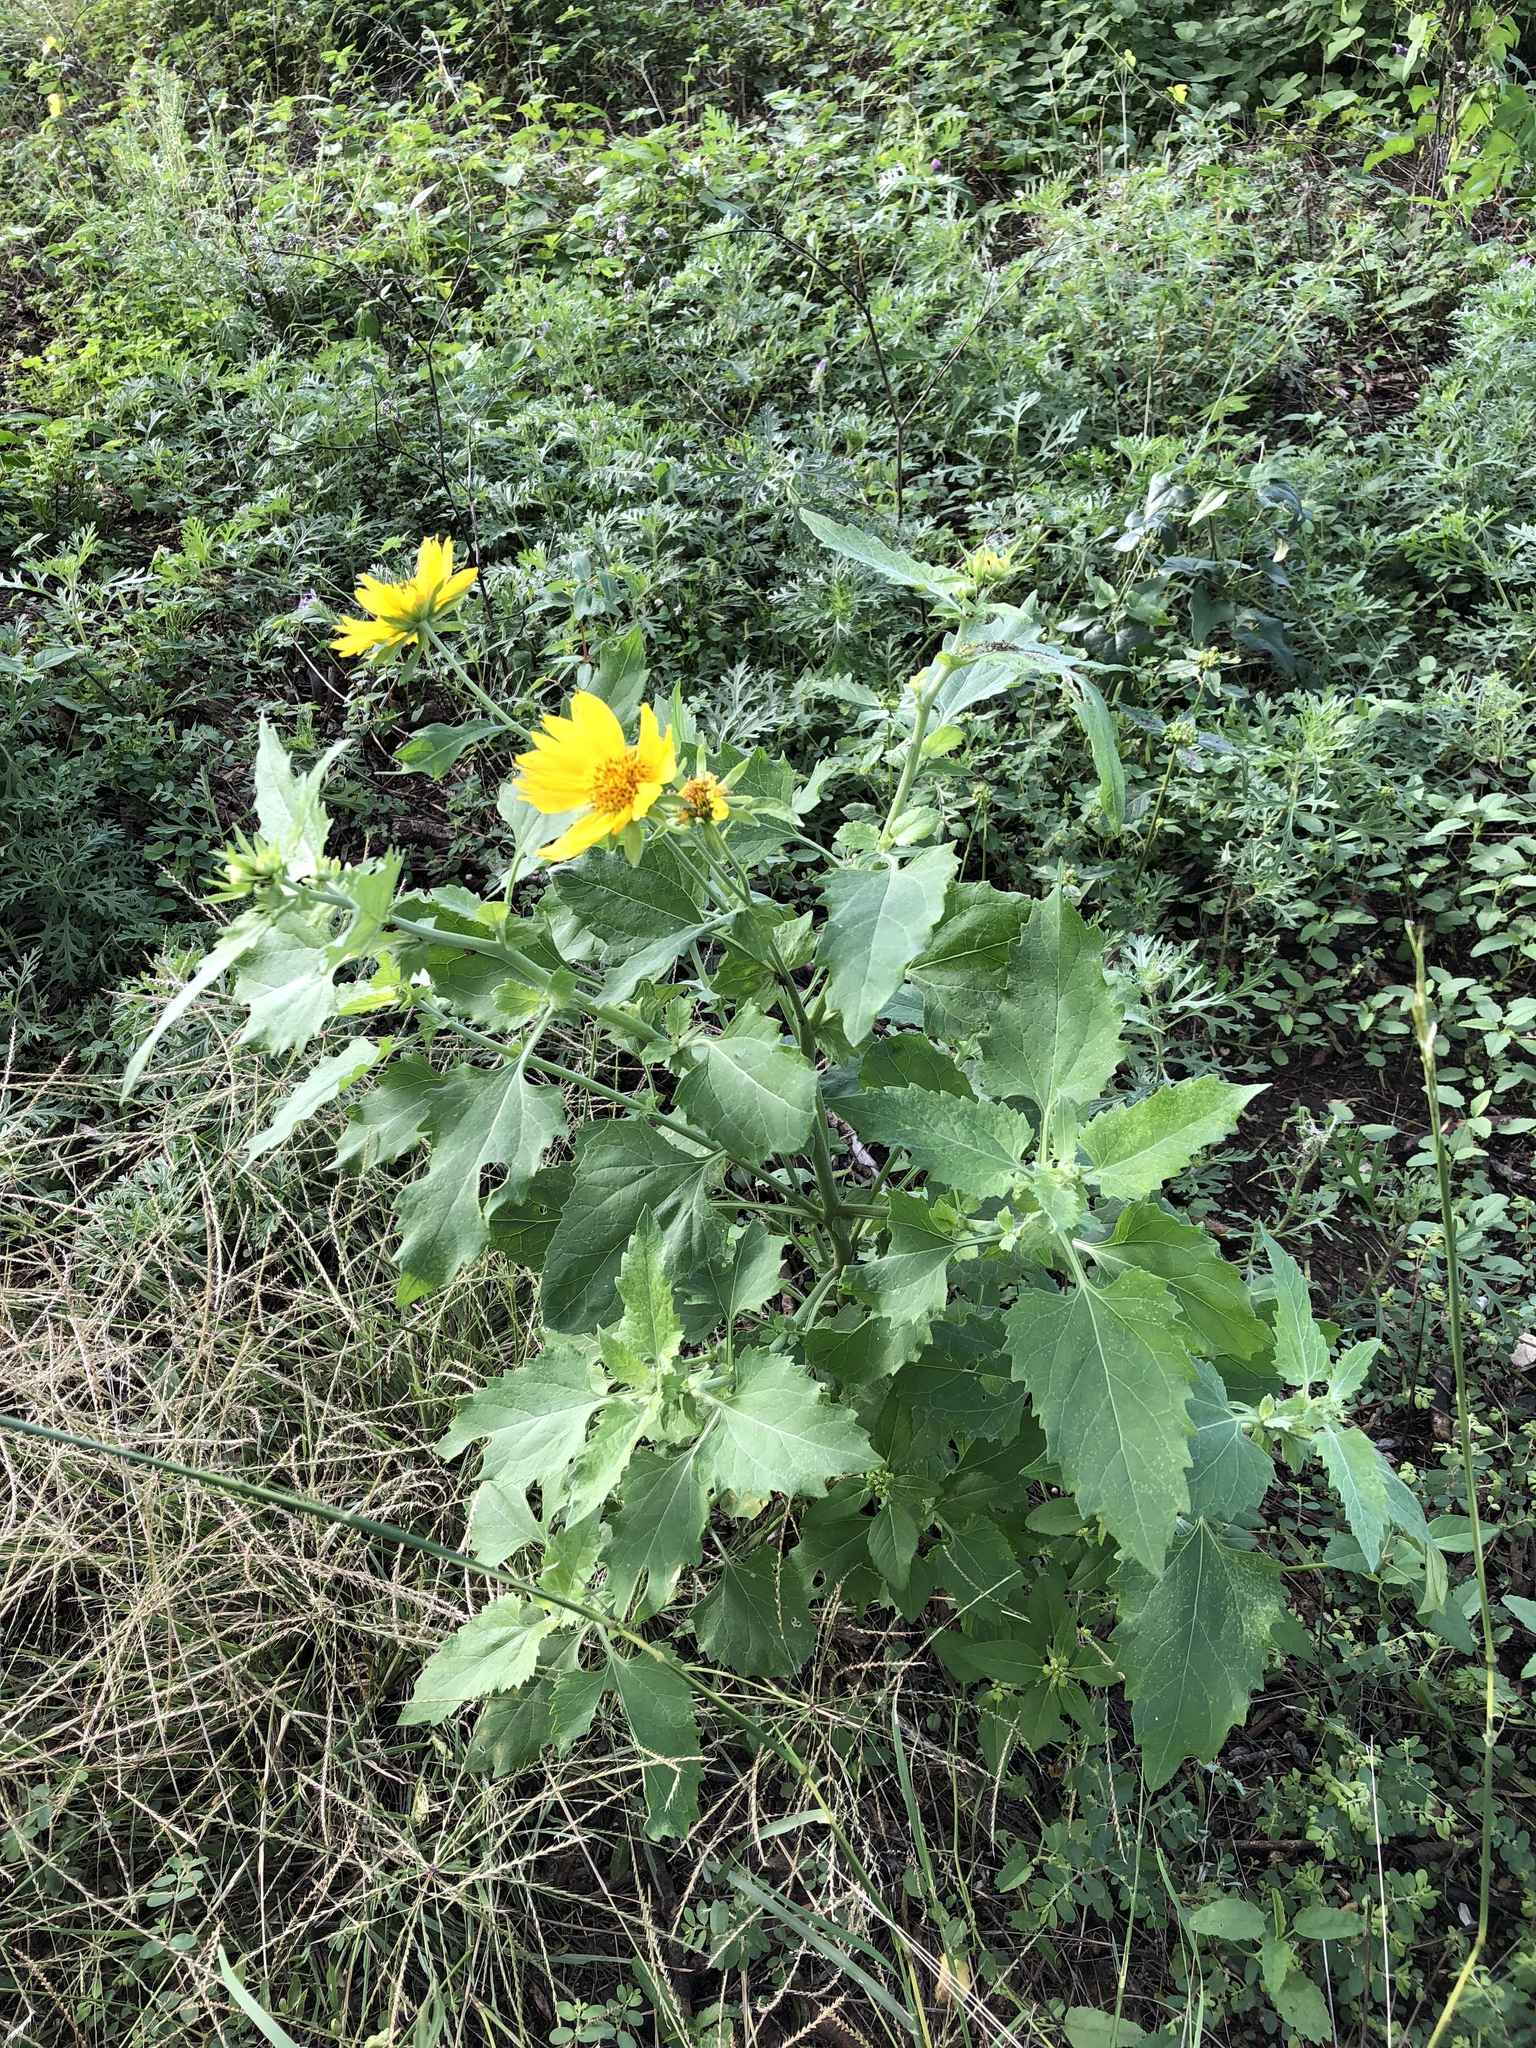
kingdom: Plantae
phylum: Tracheophyta
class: Magnoliopsida
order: Asterales
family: Asteraceae
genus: Verbesina
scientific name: Verbesina encelioides
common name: Golden crownbeard
